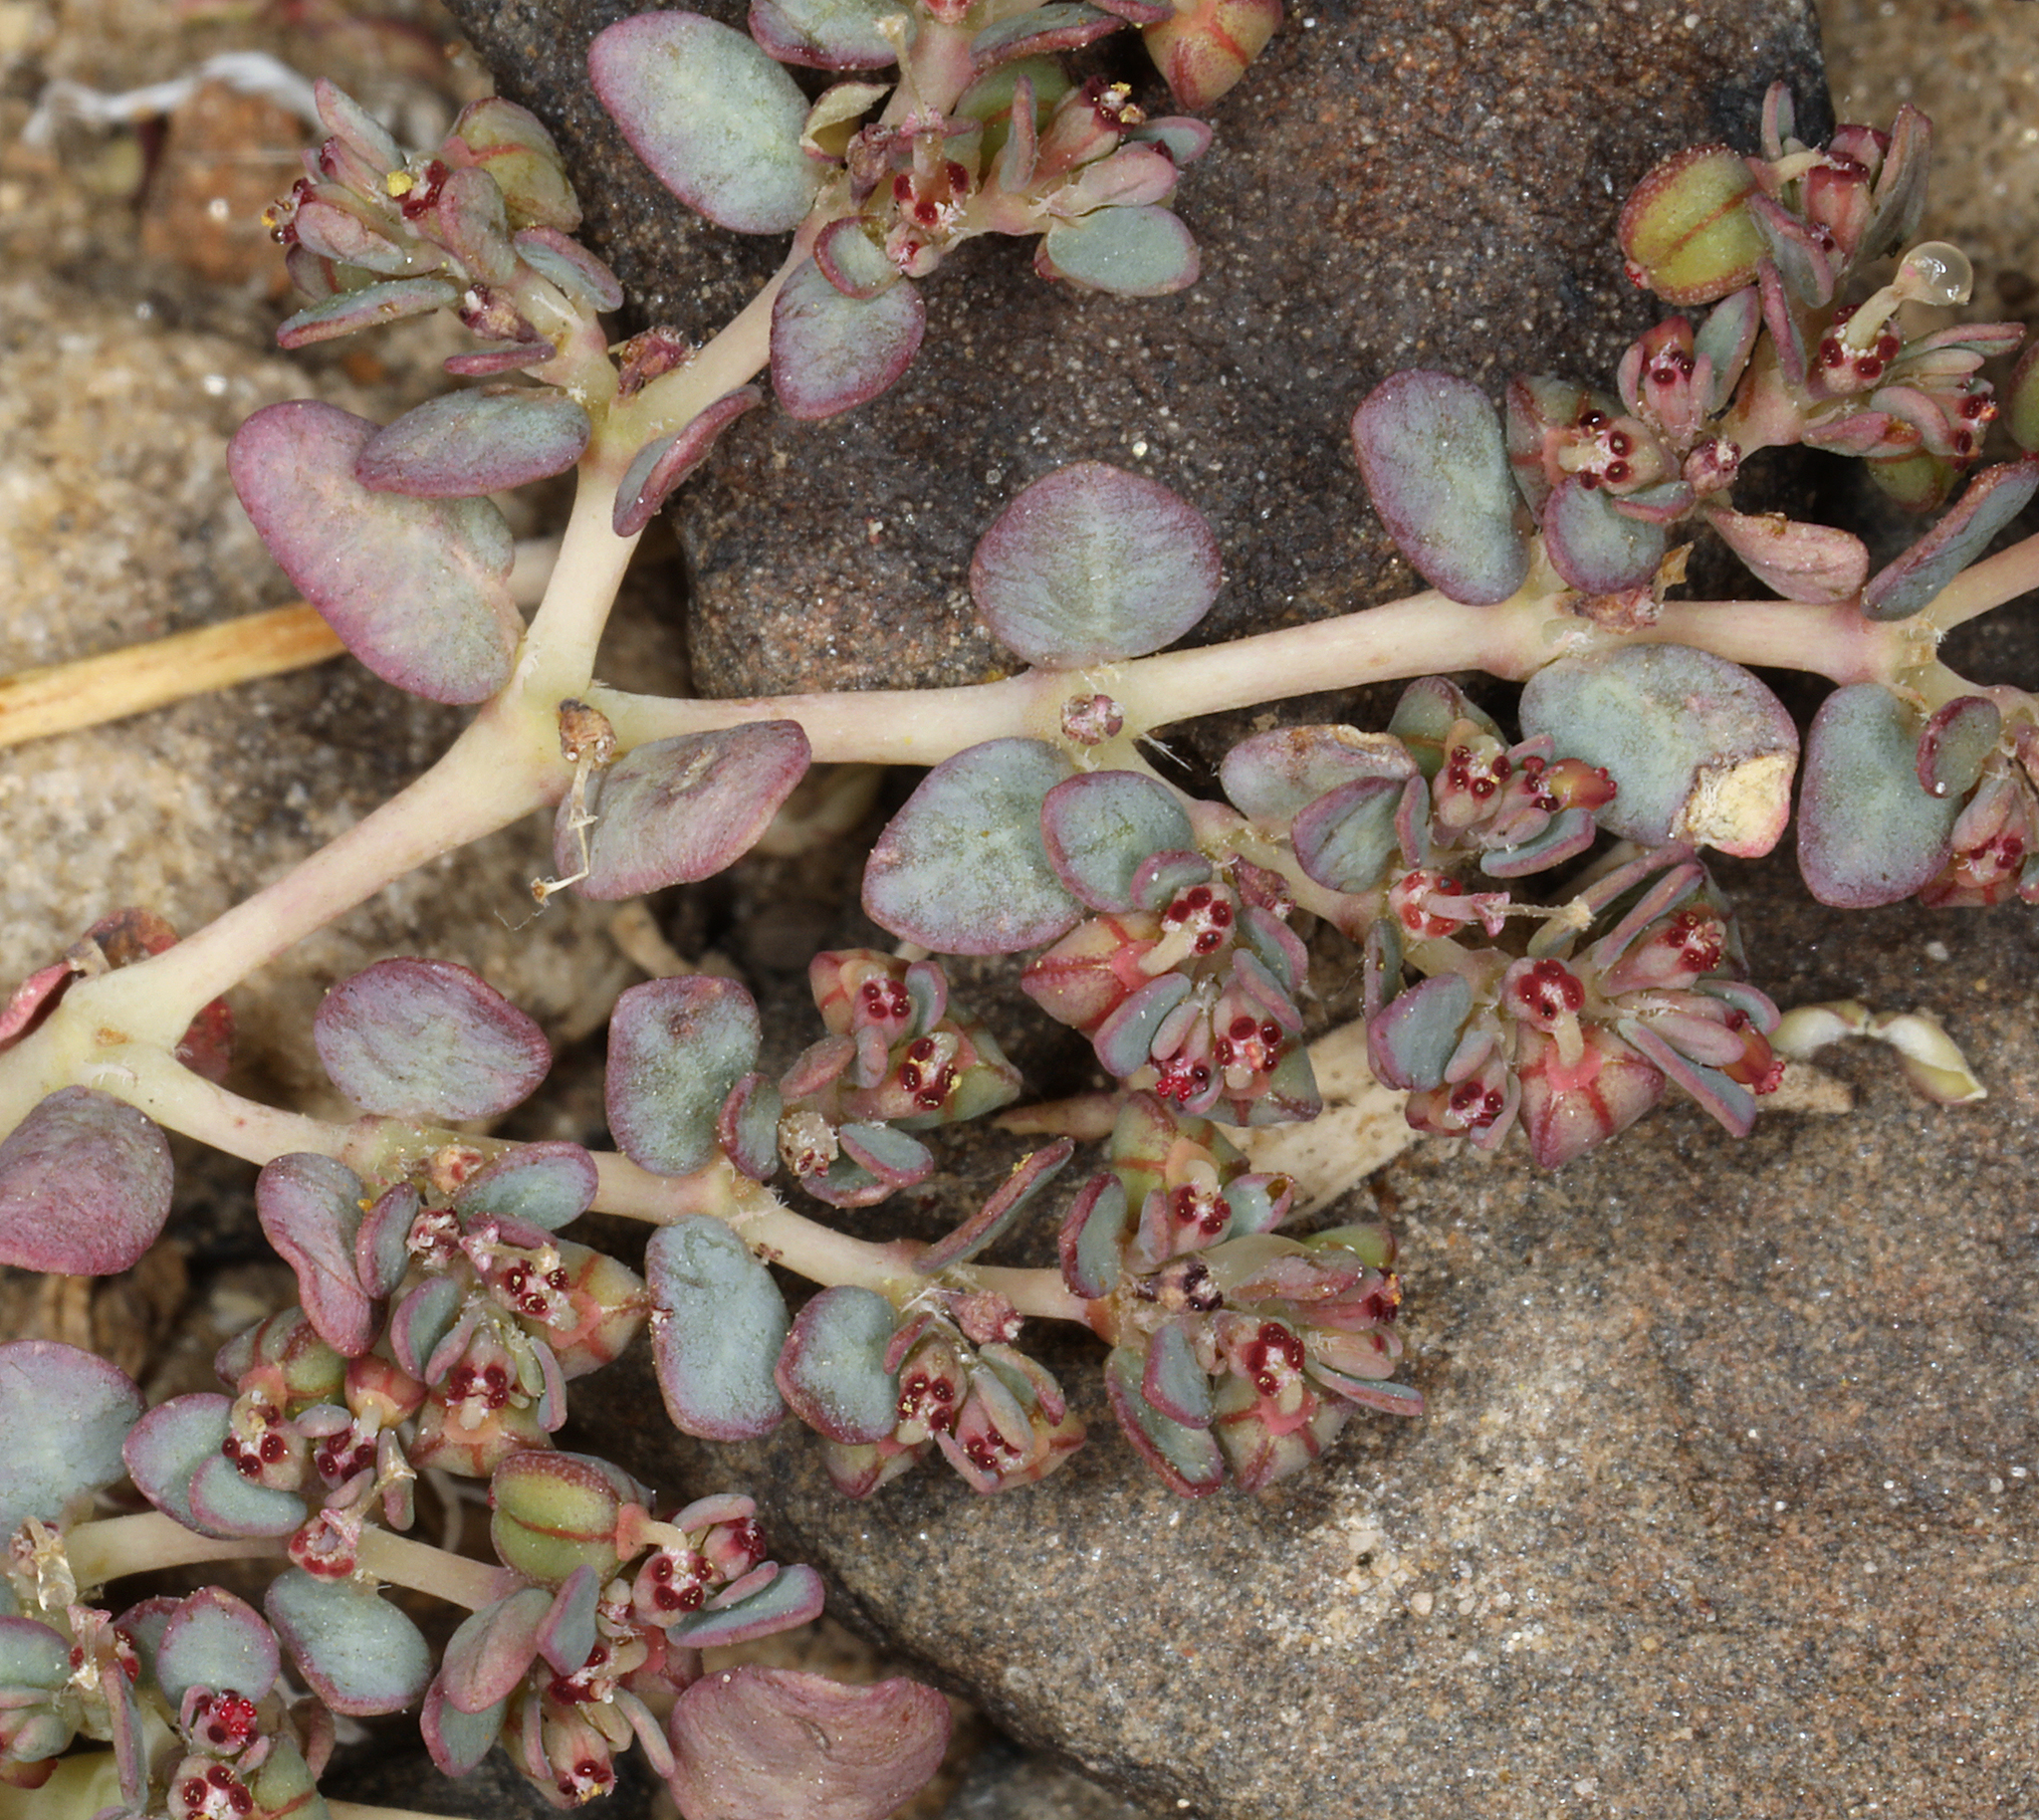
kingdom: Plantae
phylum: Tracheophyta
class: Magnoliopsida
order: Malpighiales
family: Euphorbiaceae
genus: Euphorbia
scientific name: Euphorbia micromera
